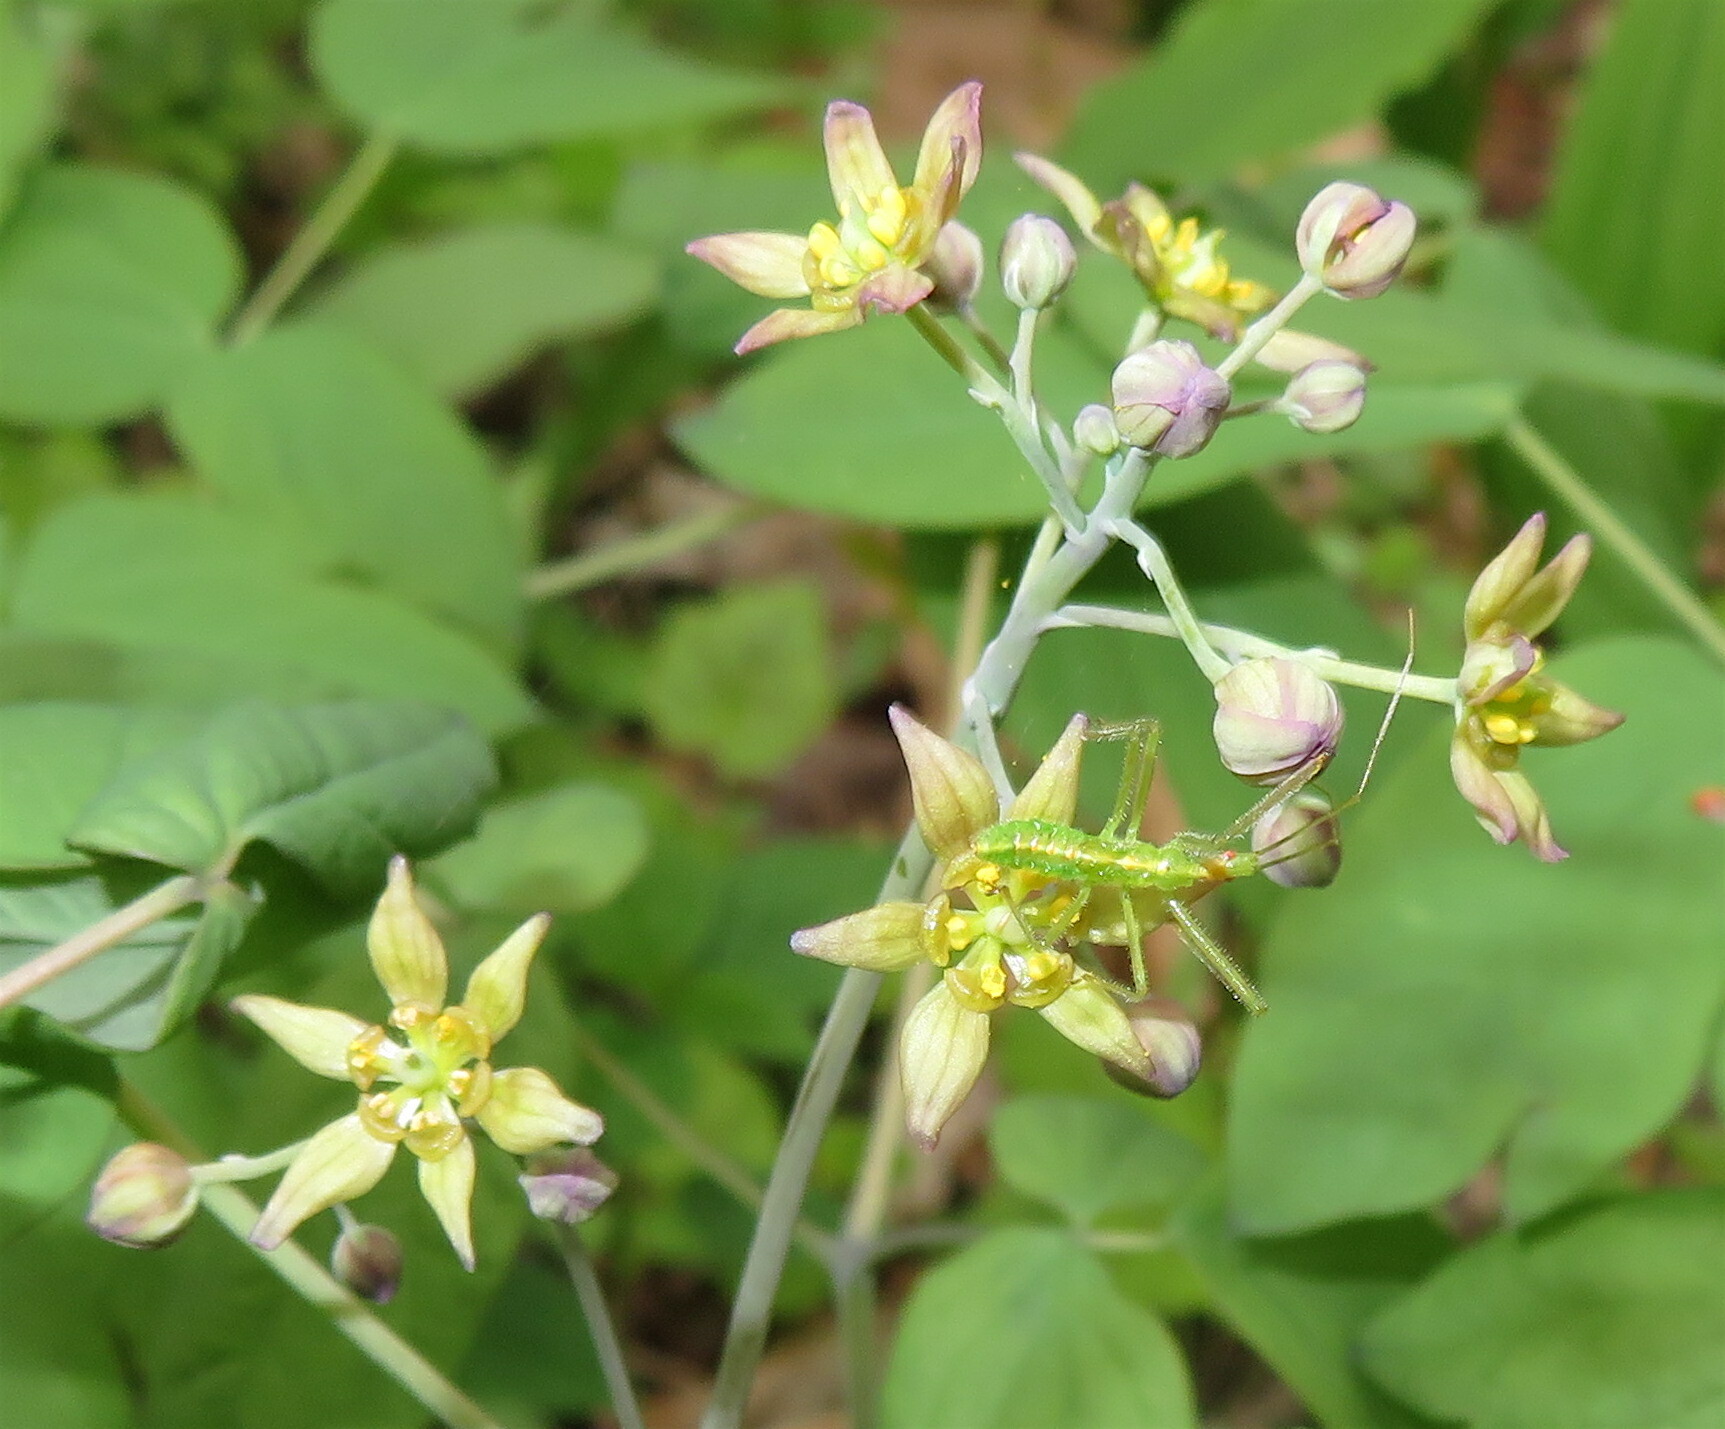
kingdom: Plantae
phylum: Tracheophyta
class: Magnoliopsida
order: Ranunculales
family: Berberidaceae
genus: Caulophyllum
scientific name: Caulophyllum thalictroides
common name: Blue cohosh
